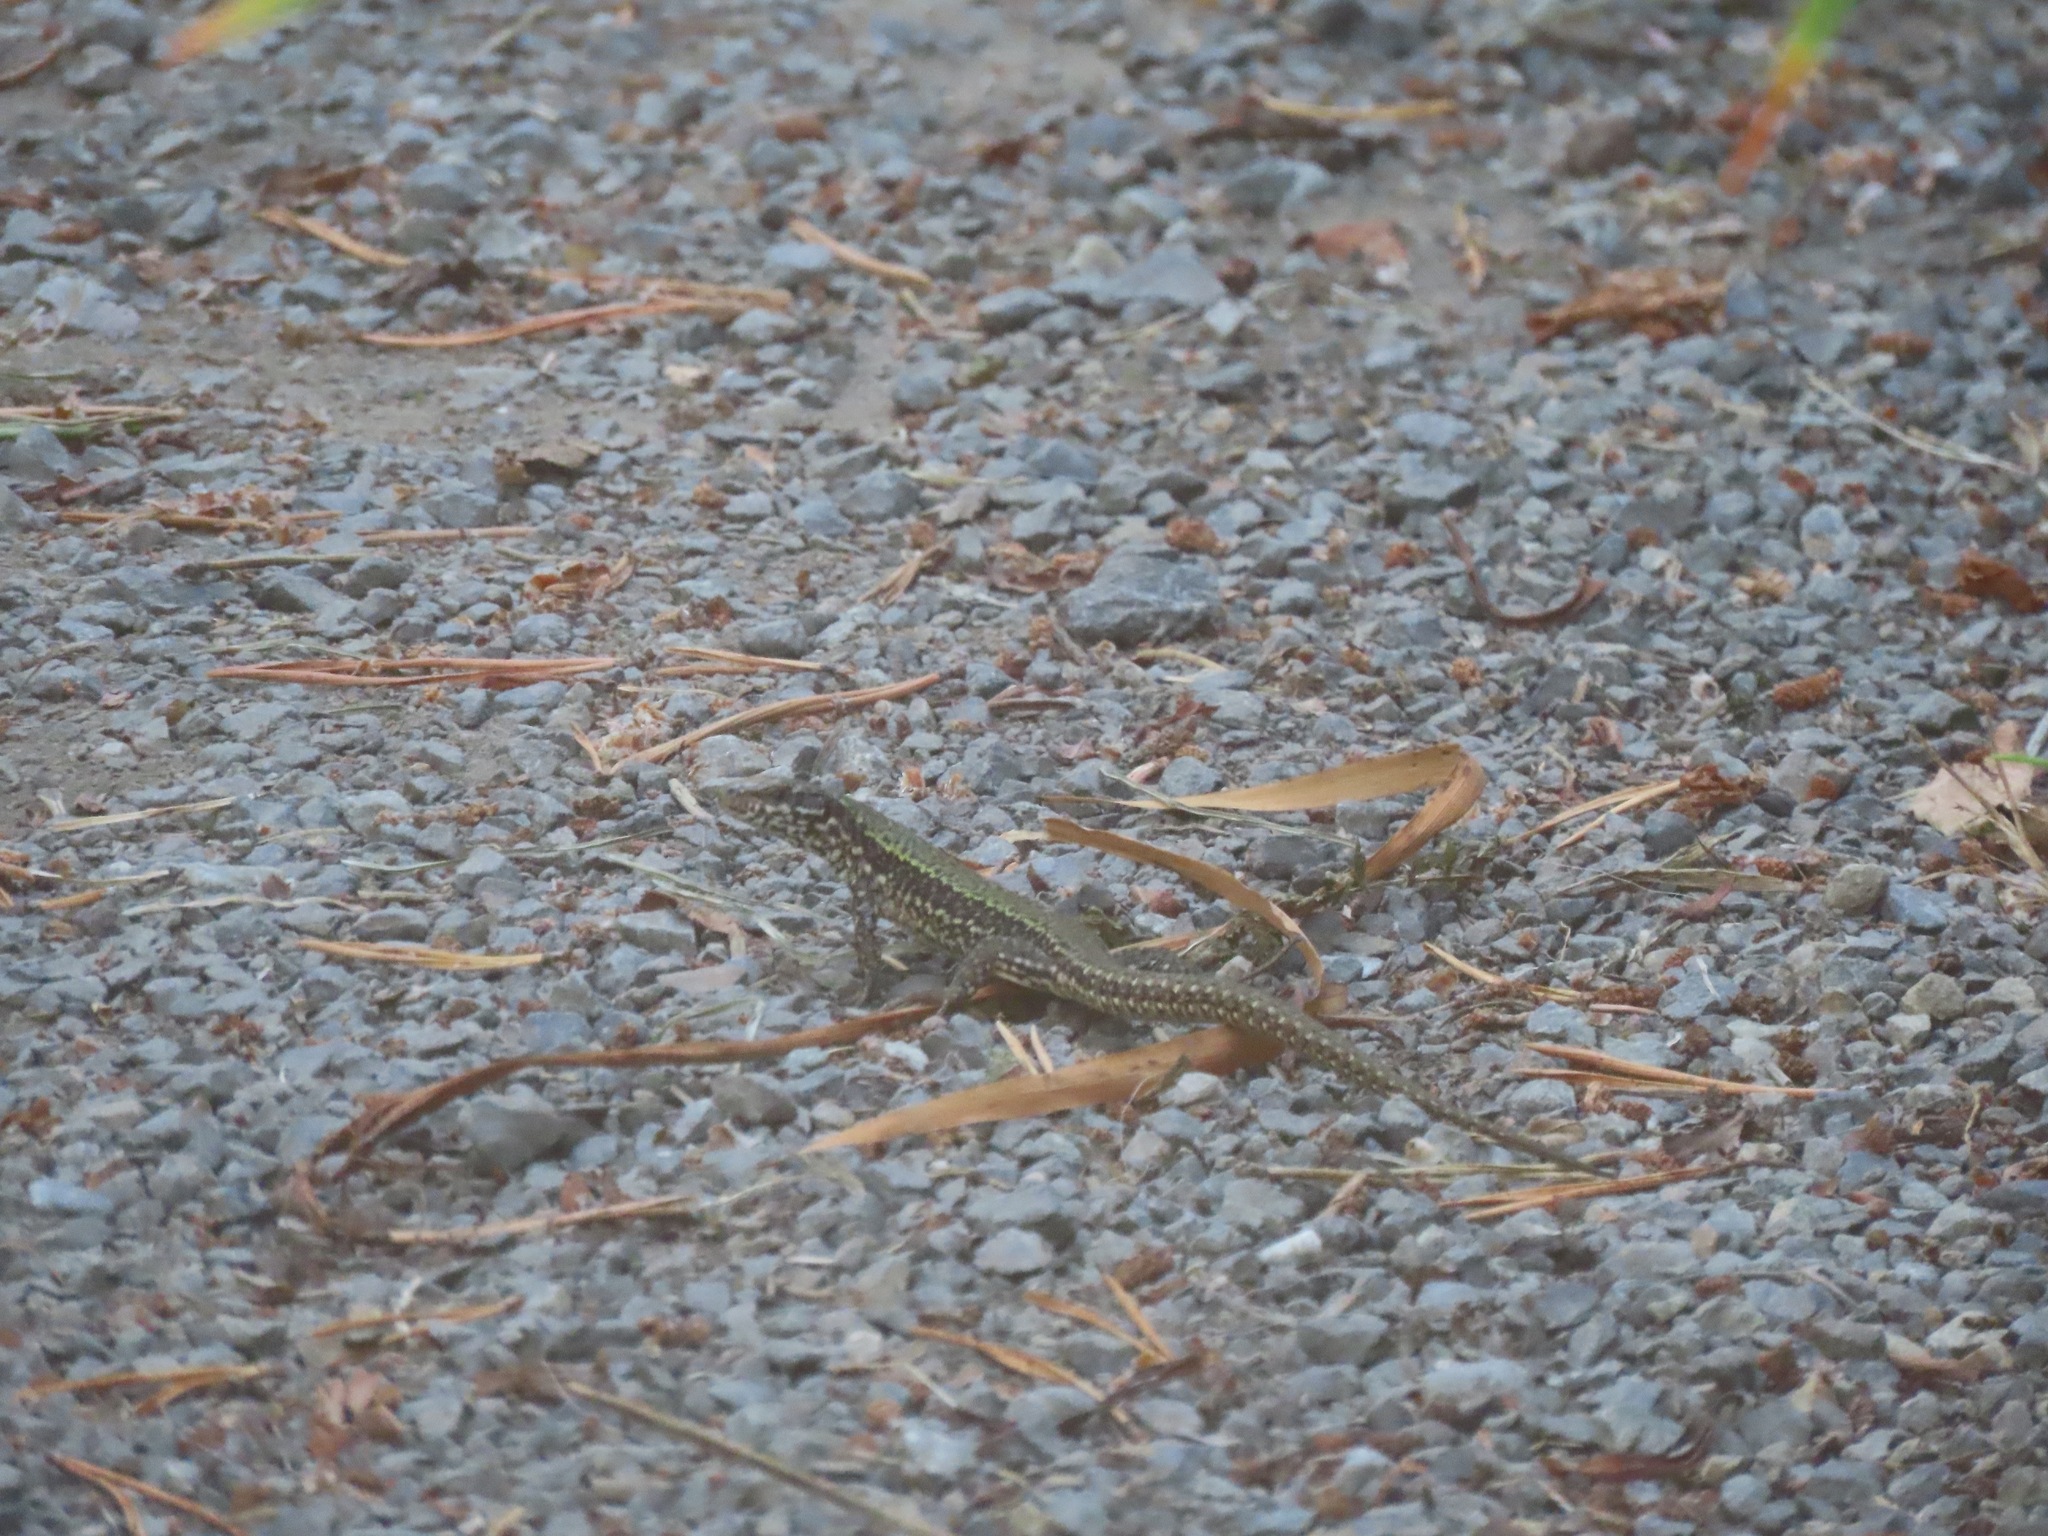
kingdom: Animalia
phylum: Chordata
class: Squamata
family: Lacertidae
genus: Podarcis
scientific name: Podarcis muralis
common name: Common wall lizard
